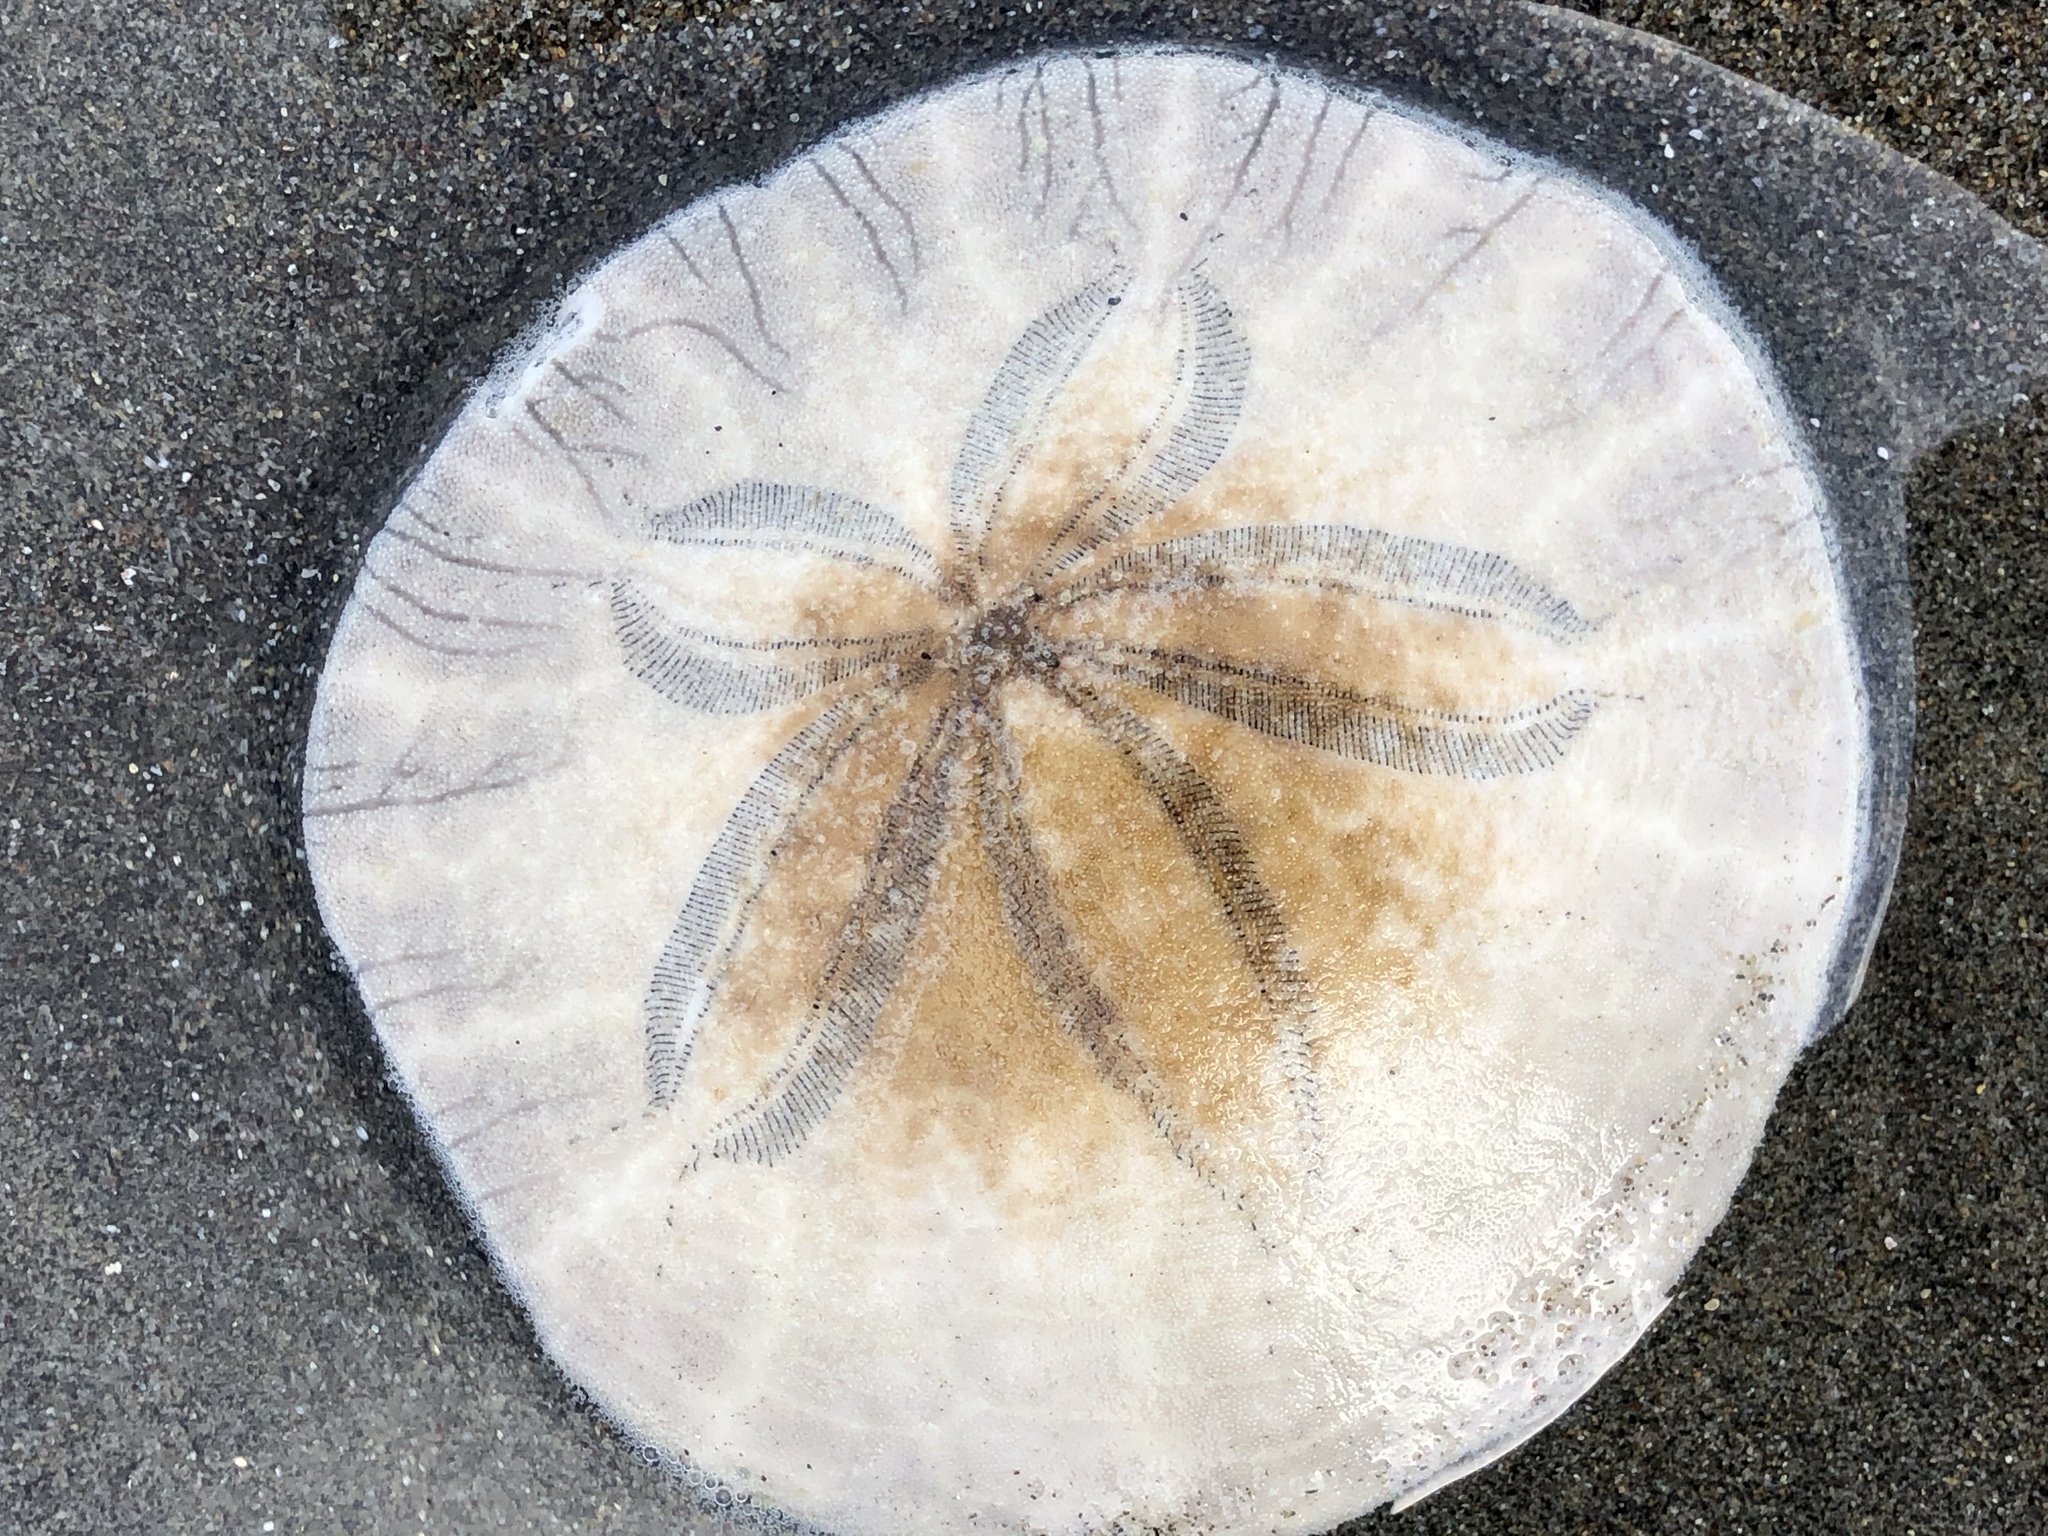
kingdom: Animalia
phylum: Echinodermata
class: Echinoidea
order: Echinolampadacea
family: Dendrasteridae
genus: Dendraster
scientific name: Dendraster excentricus
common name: Eccentric sand dollar sea urchin
